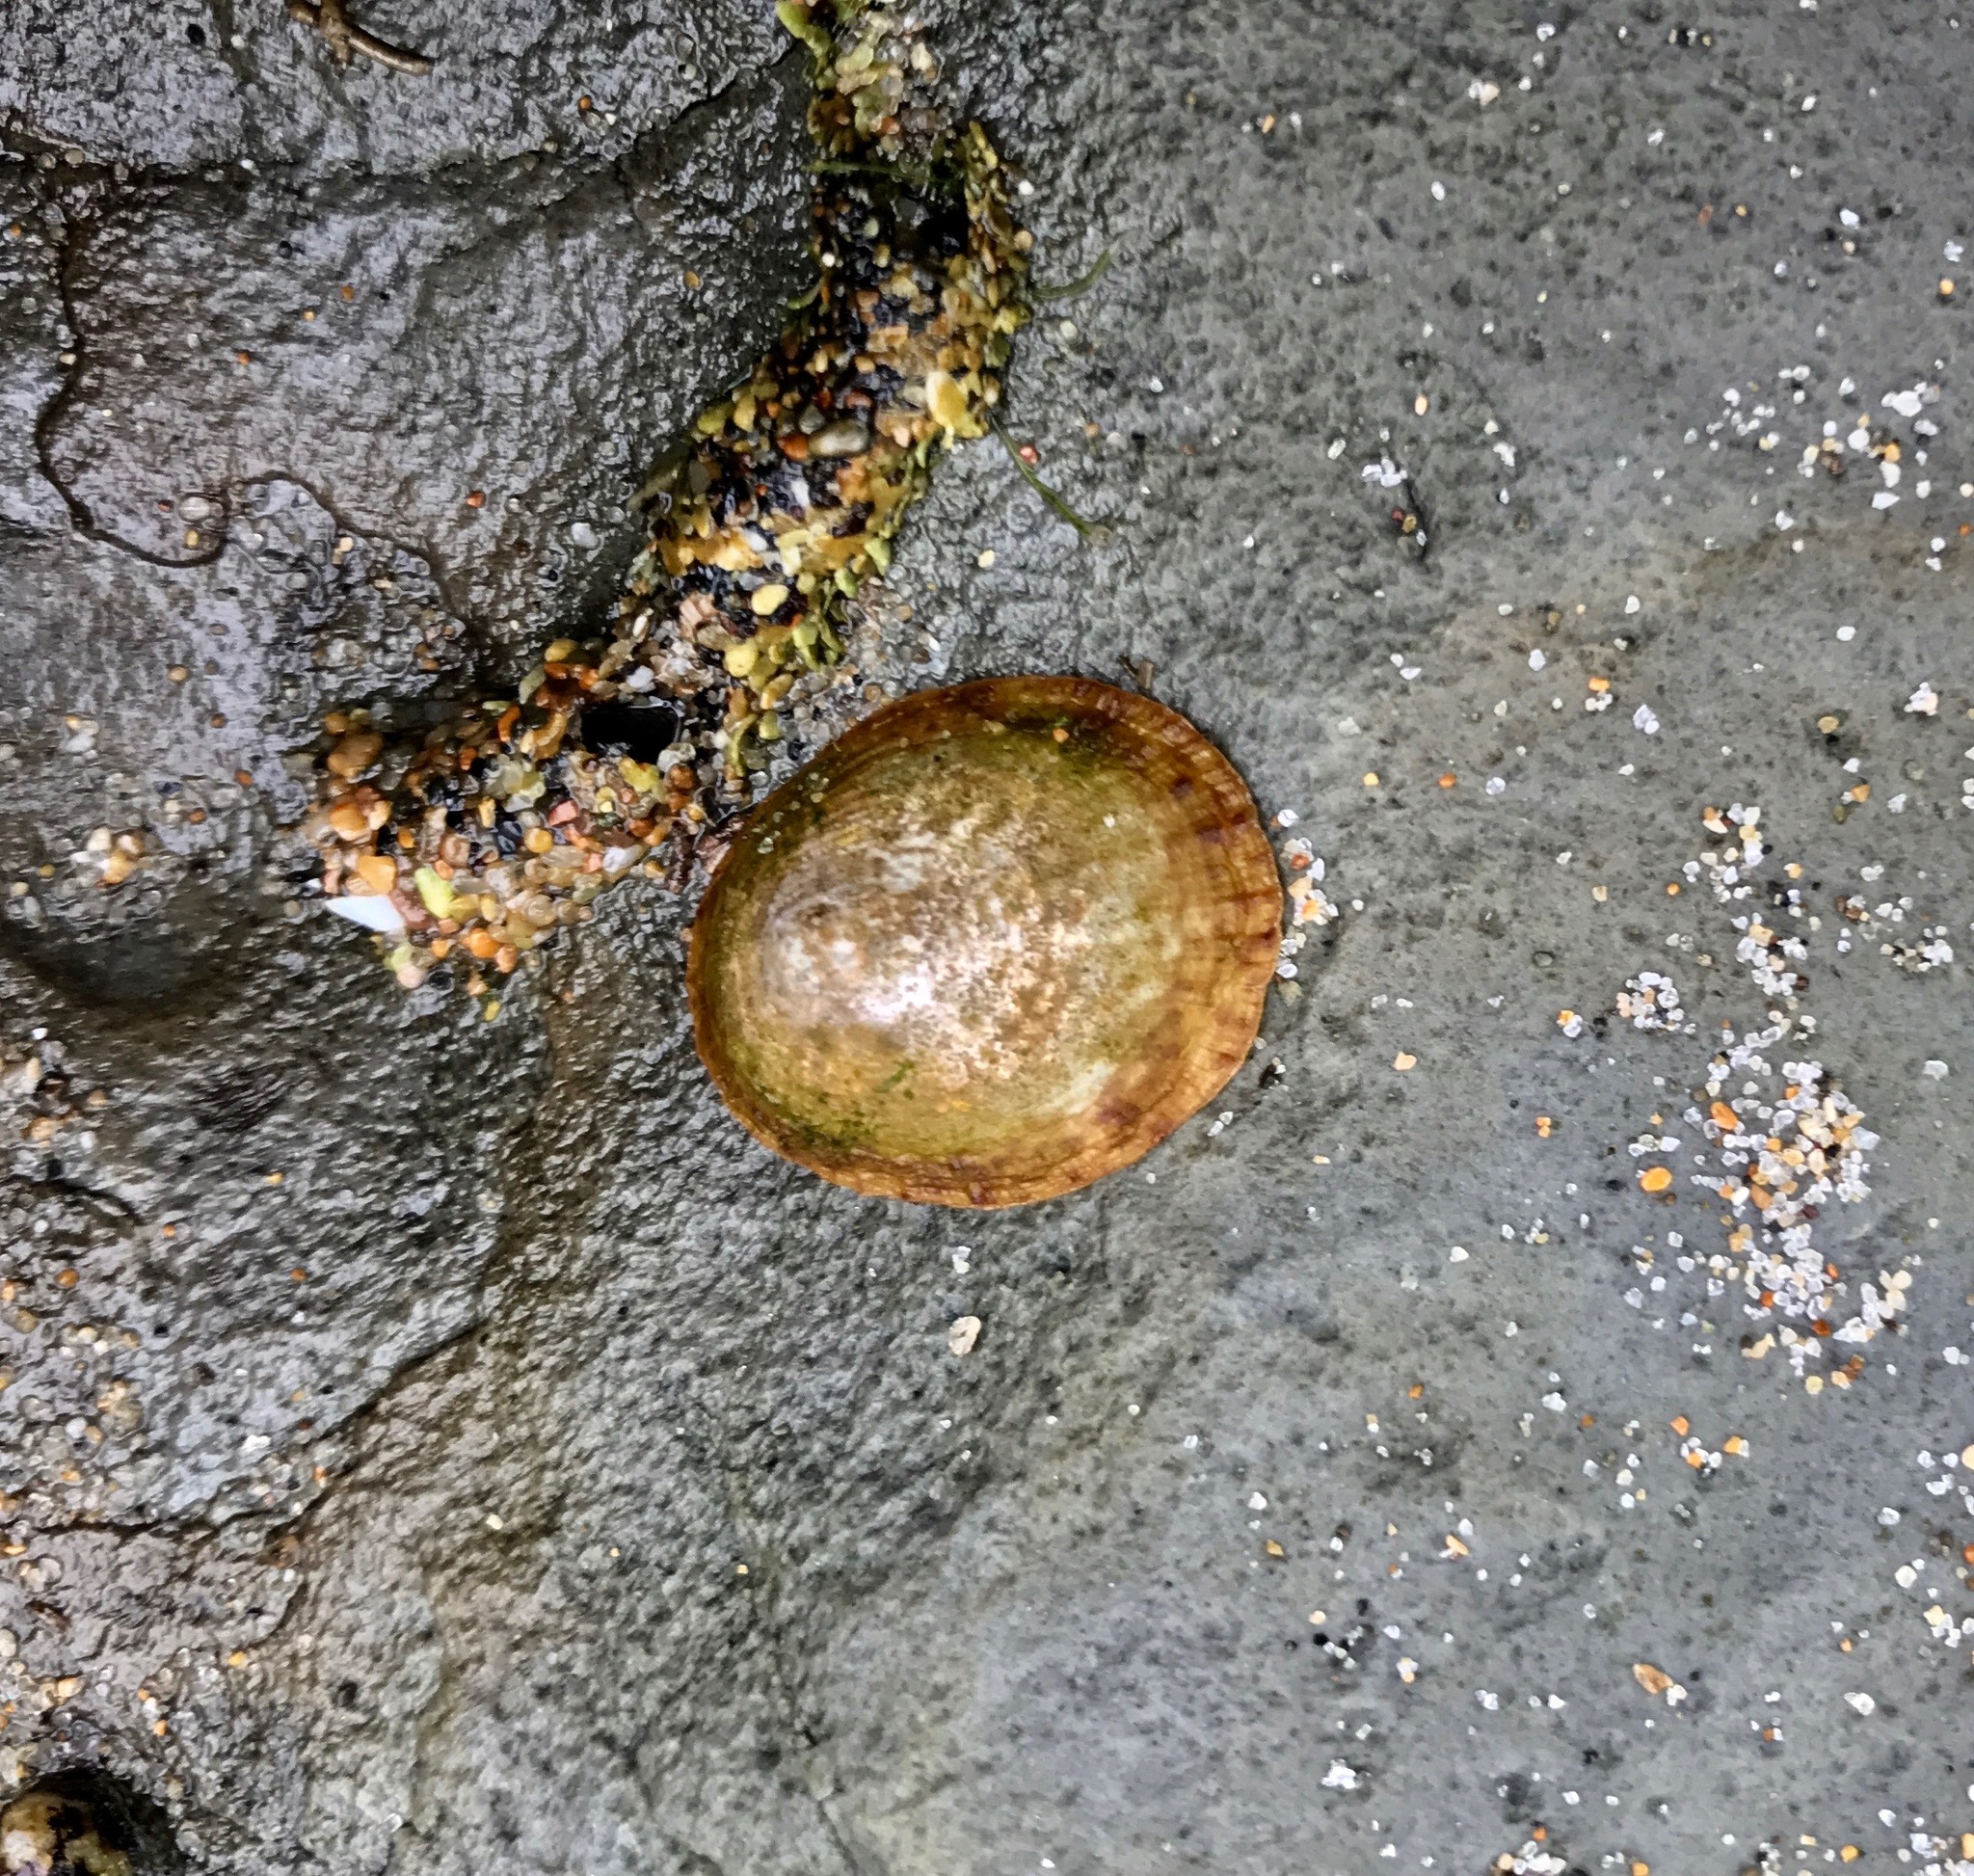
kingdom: Animalia
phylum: Mollusca
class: Gastropoda
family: Lottiidae
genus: Lottia
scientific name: Lottia limatula
